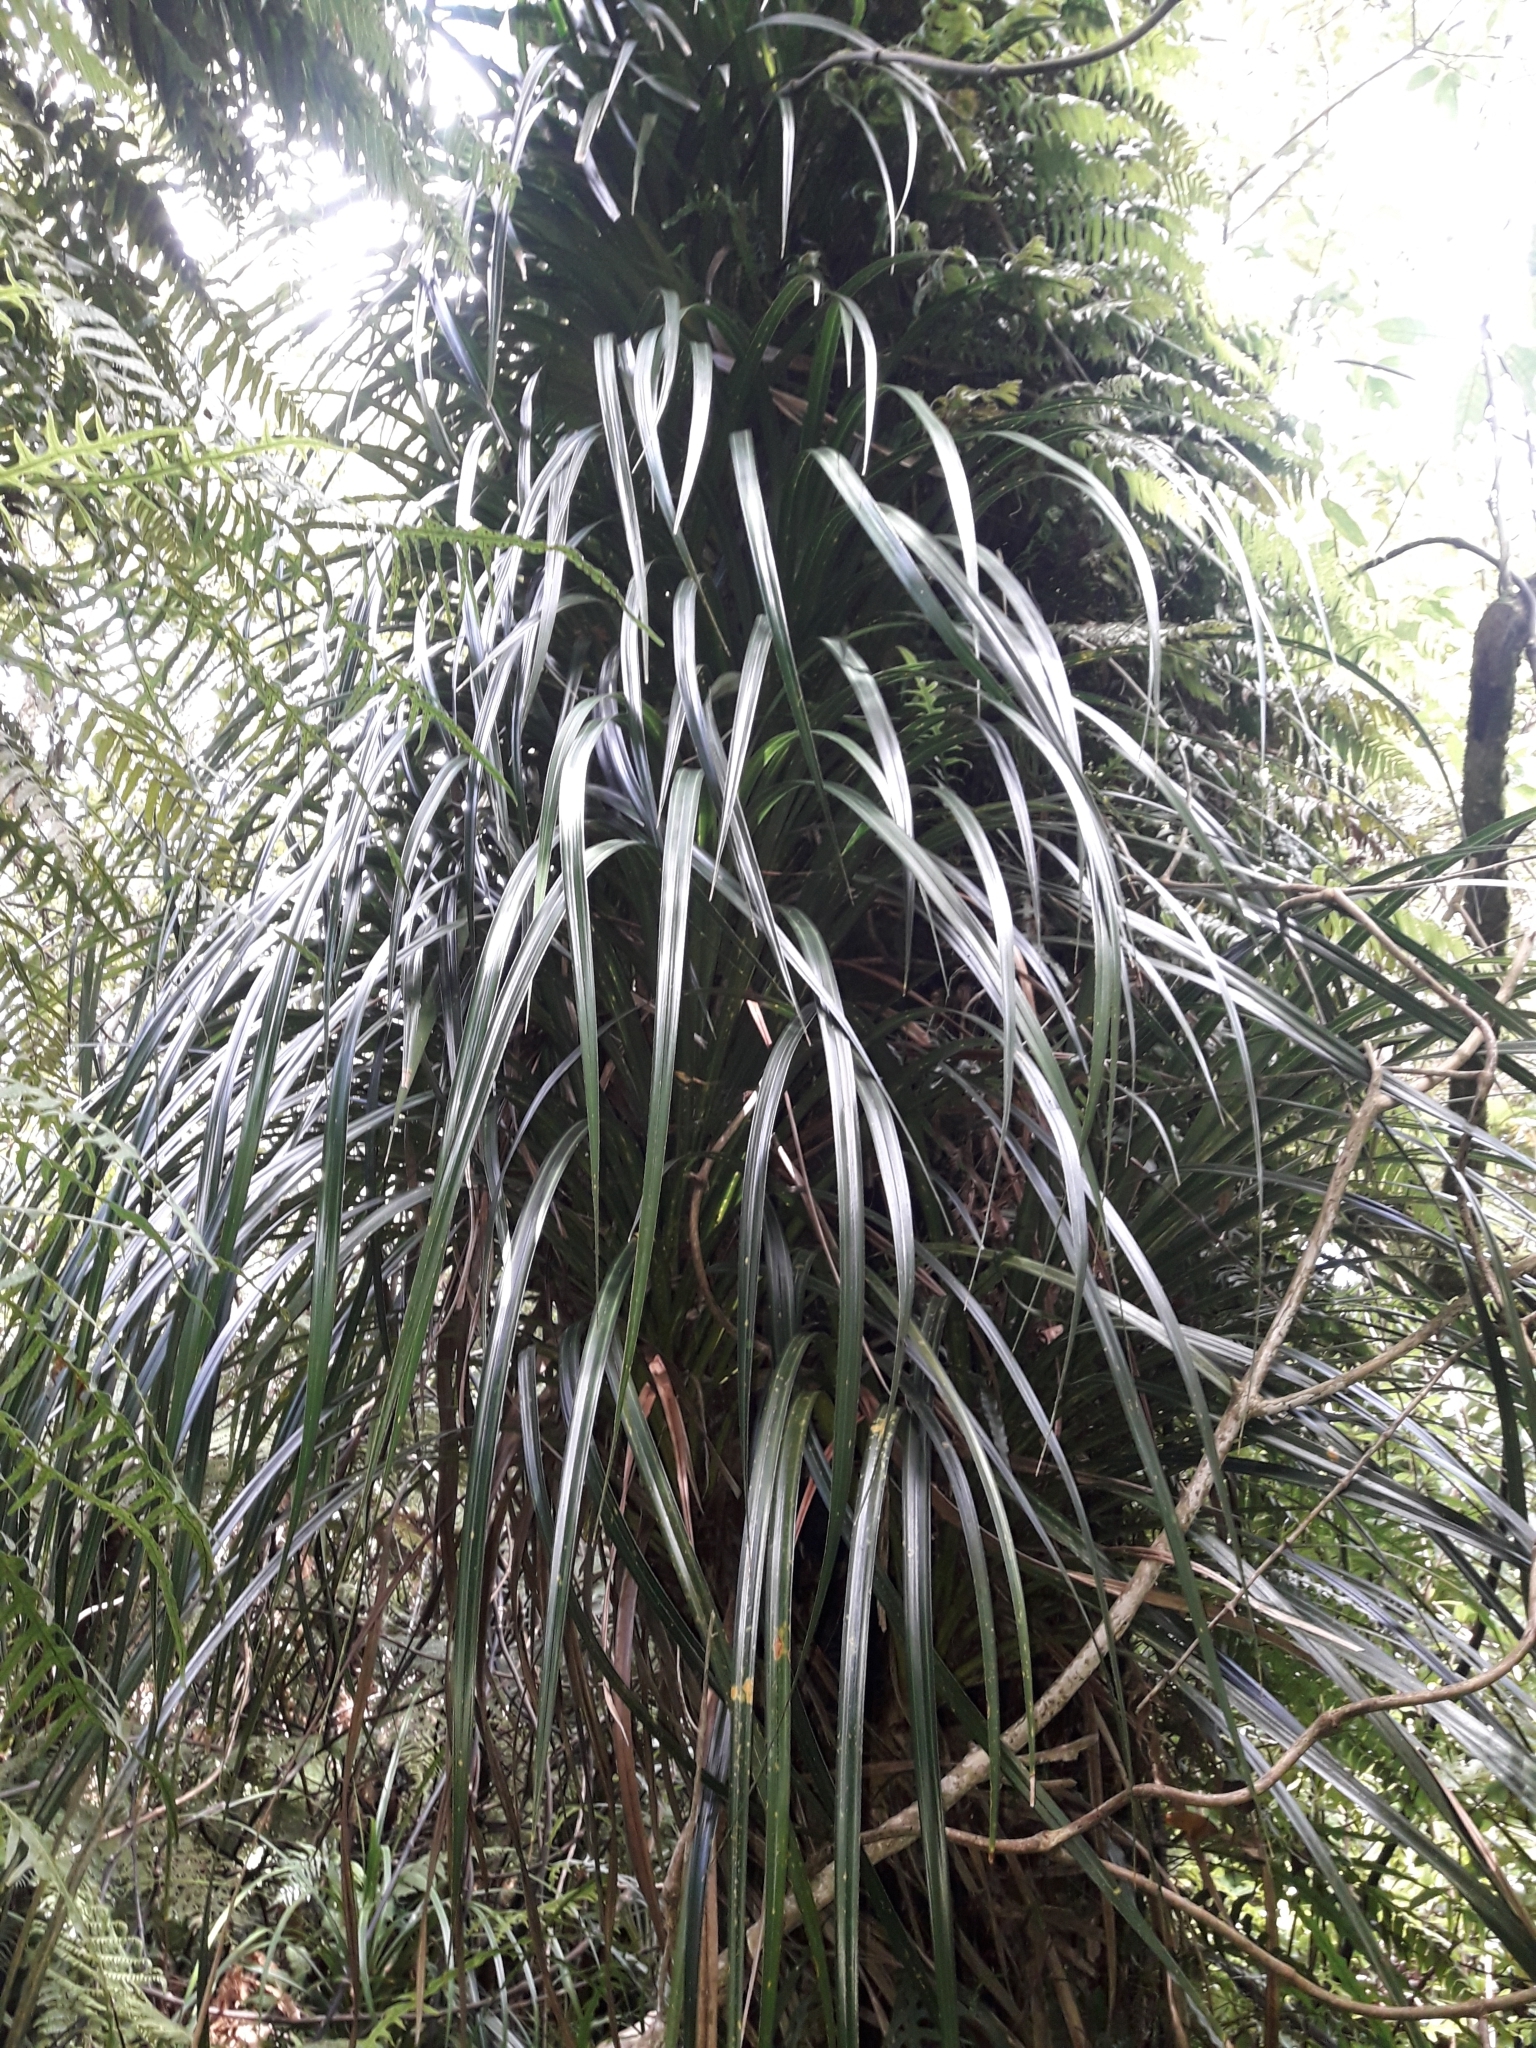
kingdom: Plantae
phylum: Tracheophyta
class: Liliopsida
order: Pandanales
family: Pandanaceae
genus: Freycinetia
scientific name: Freycinetia banksii
